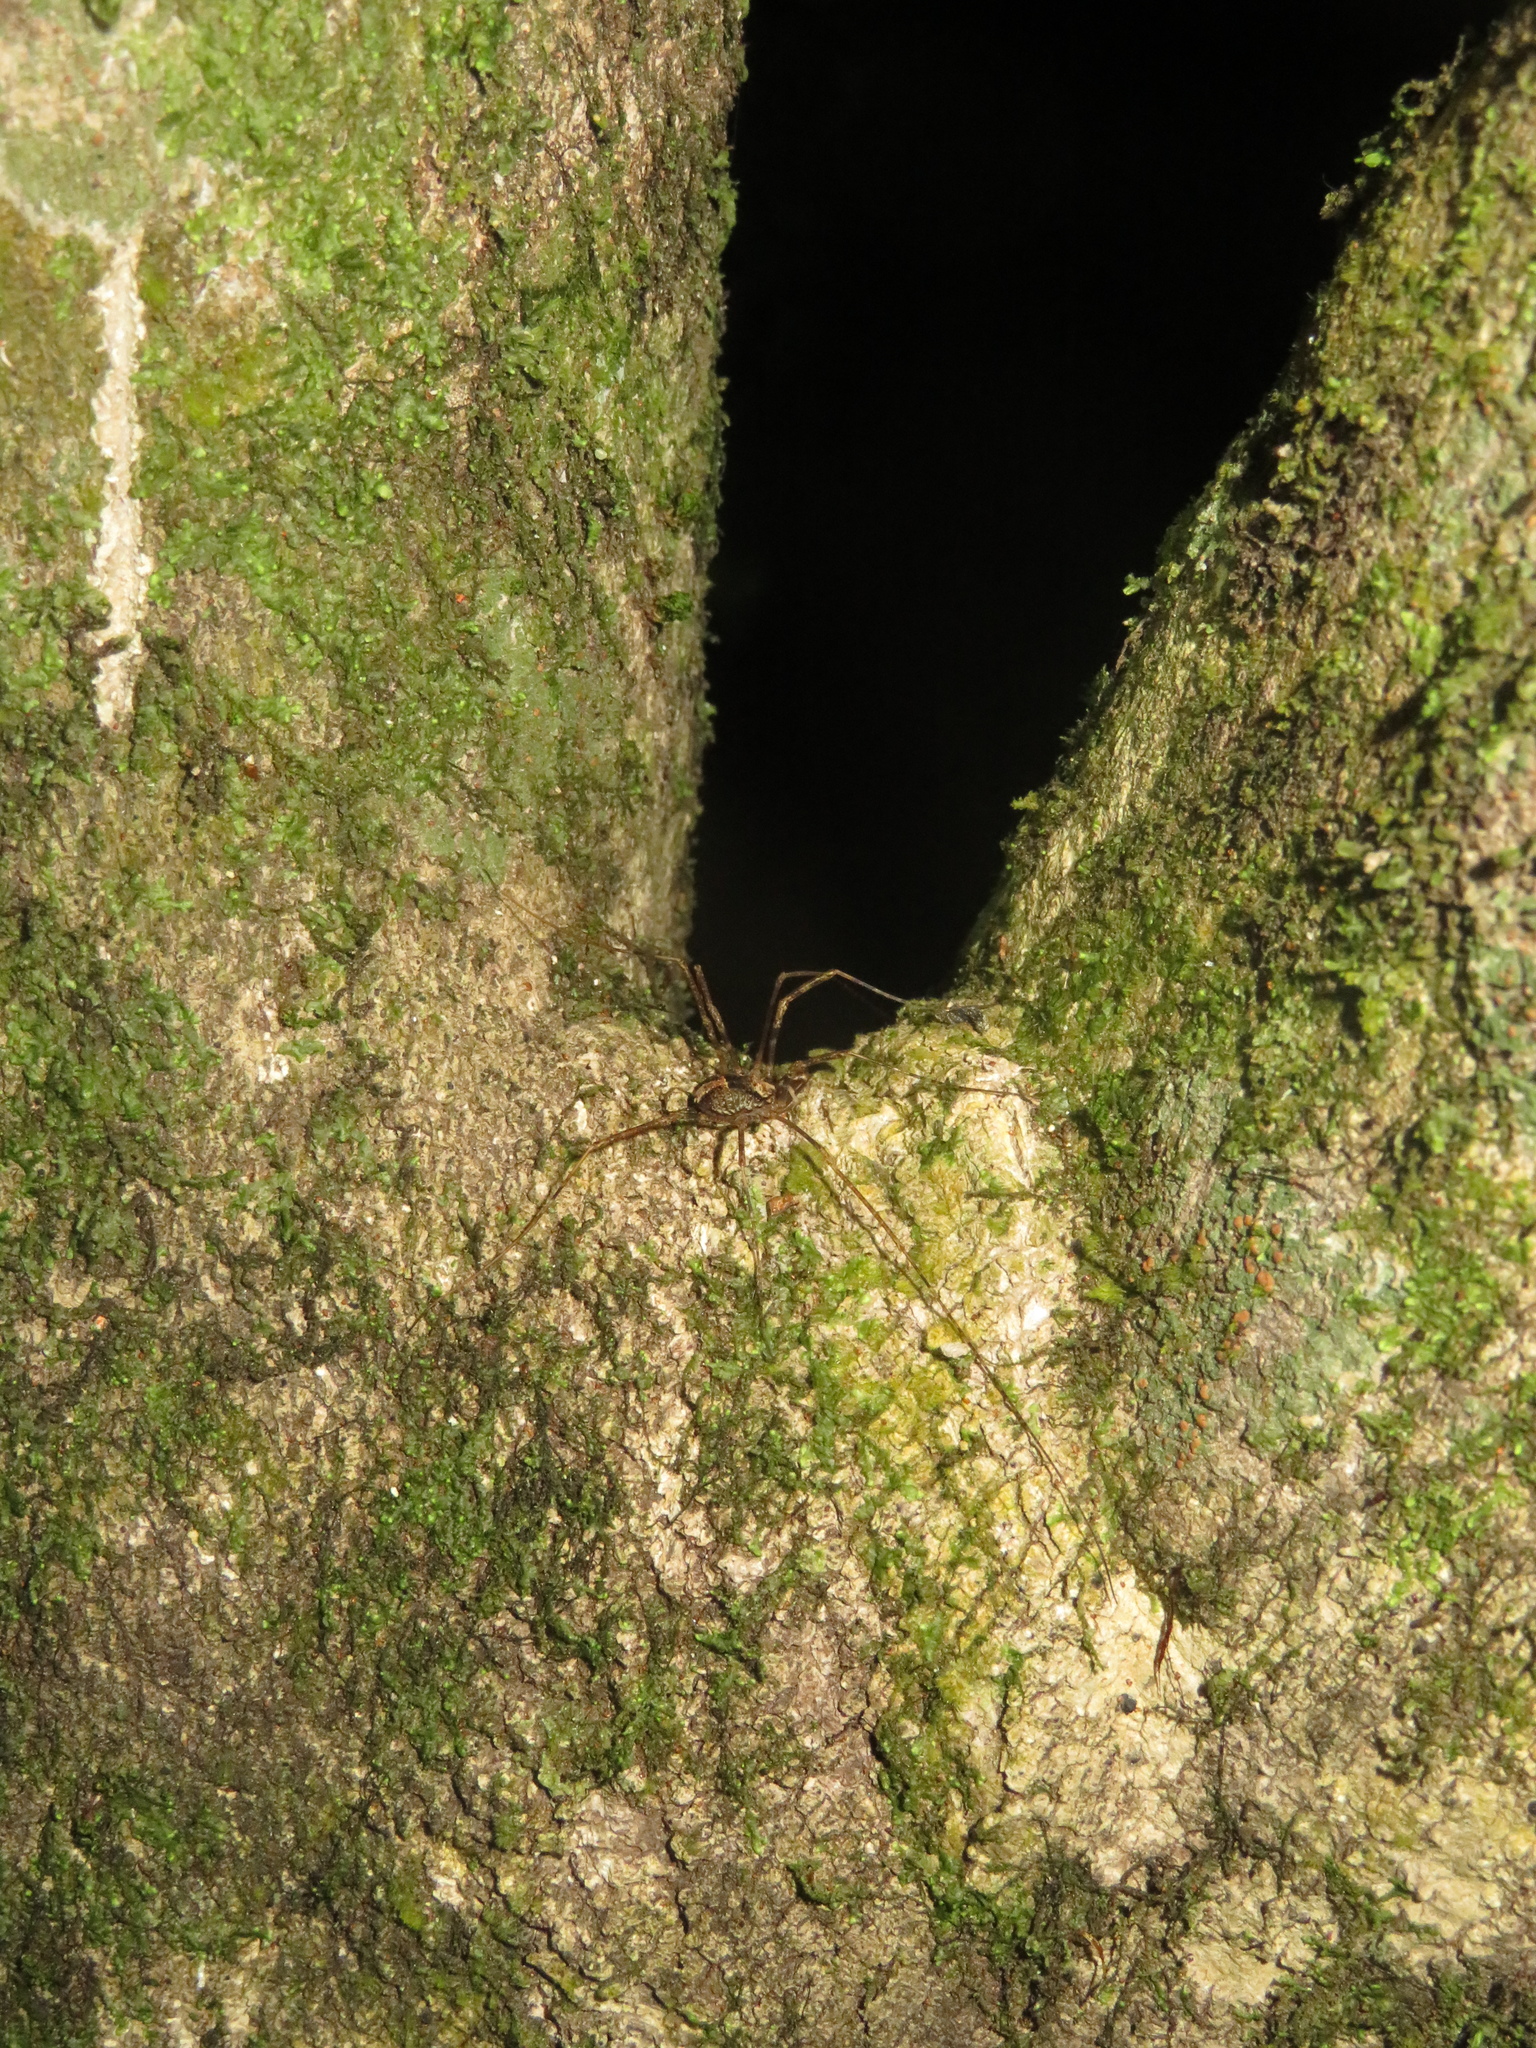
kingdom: Animalia
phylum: Arthropoda
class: Arachnida
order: Opiliones
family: Neopilionidae
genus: Forsteropsalis
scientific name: Forsteropsalis inconstans
